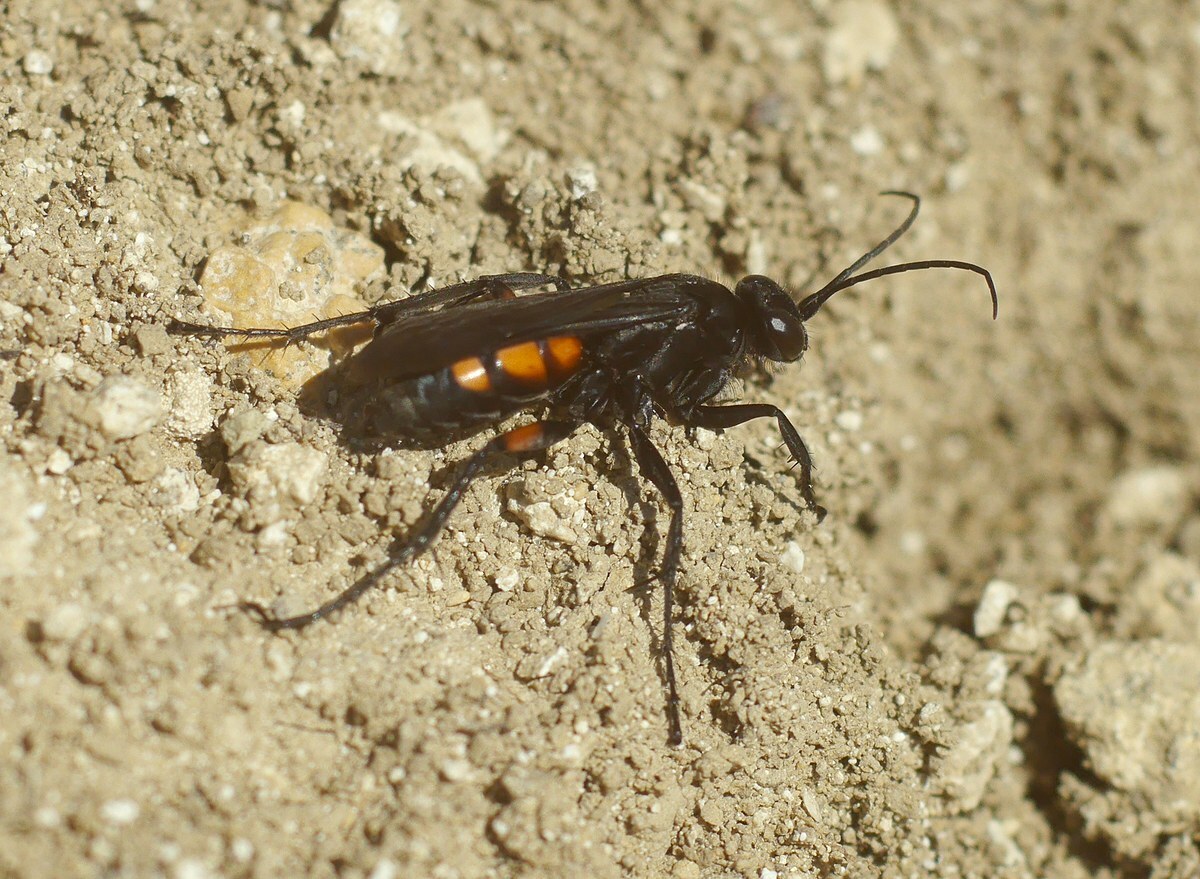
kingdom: Animalia
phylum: Arthropoda
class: Insecta
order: Hymenoptera
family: Pompilidae
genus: Anoplius
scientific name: Anoplius viaticus
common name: Black banded spider wasp
